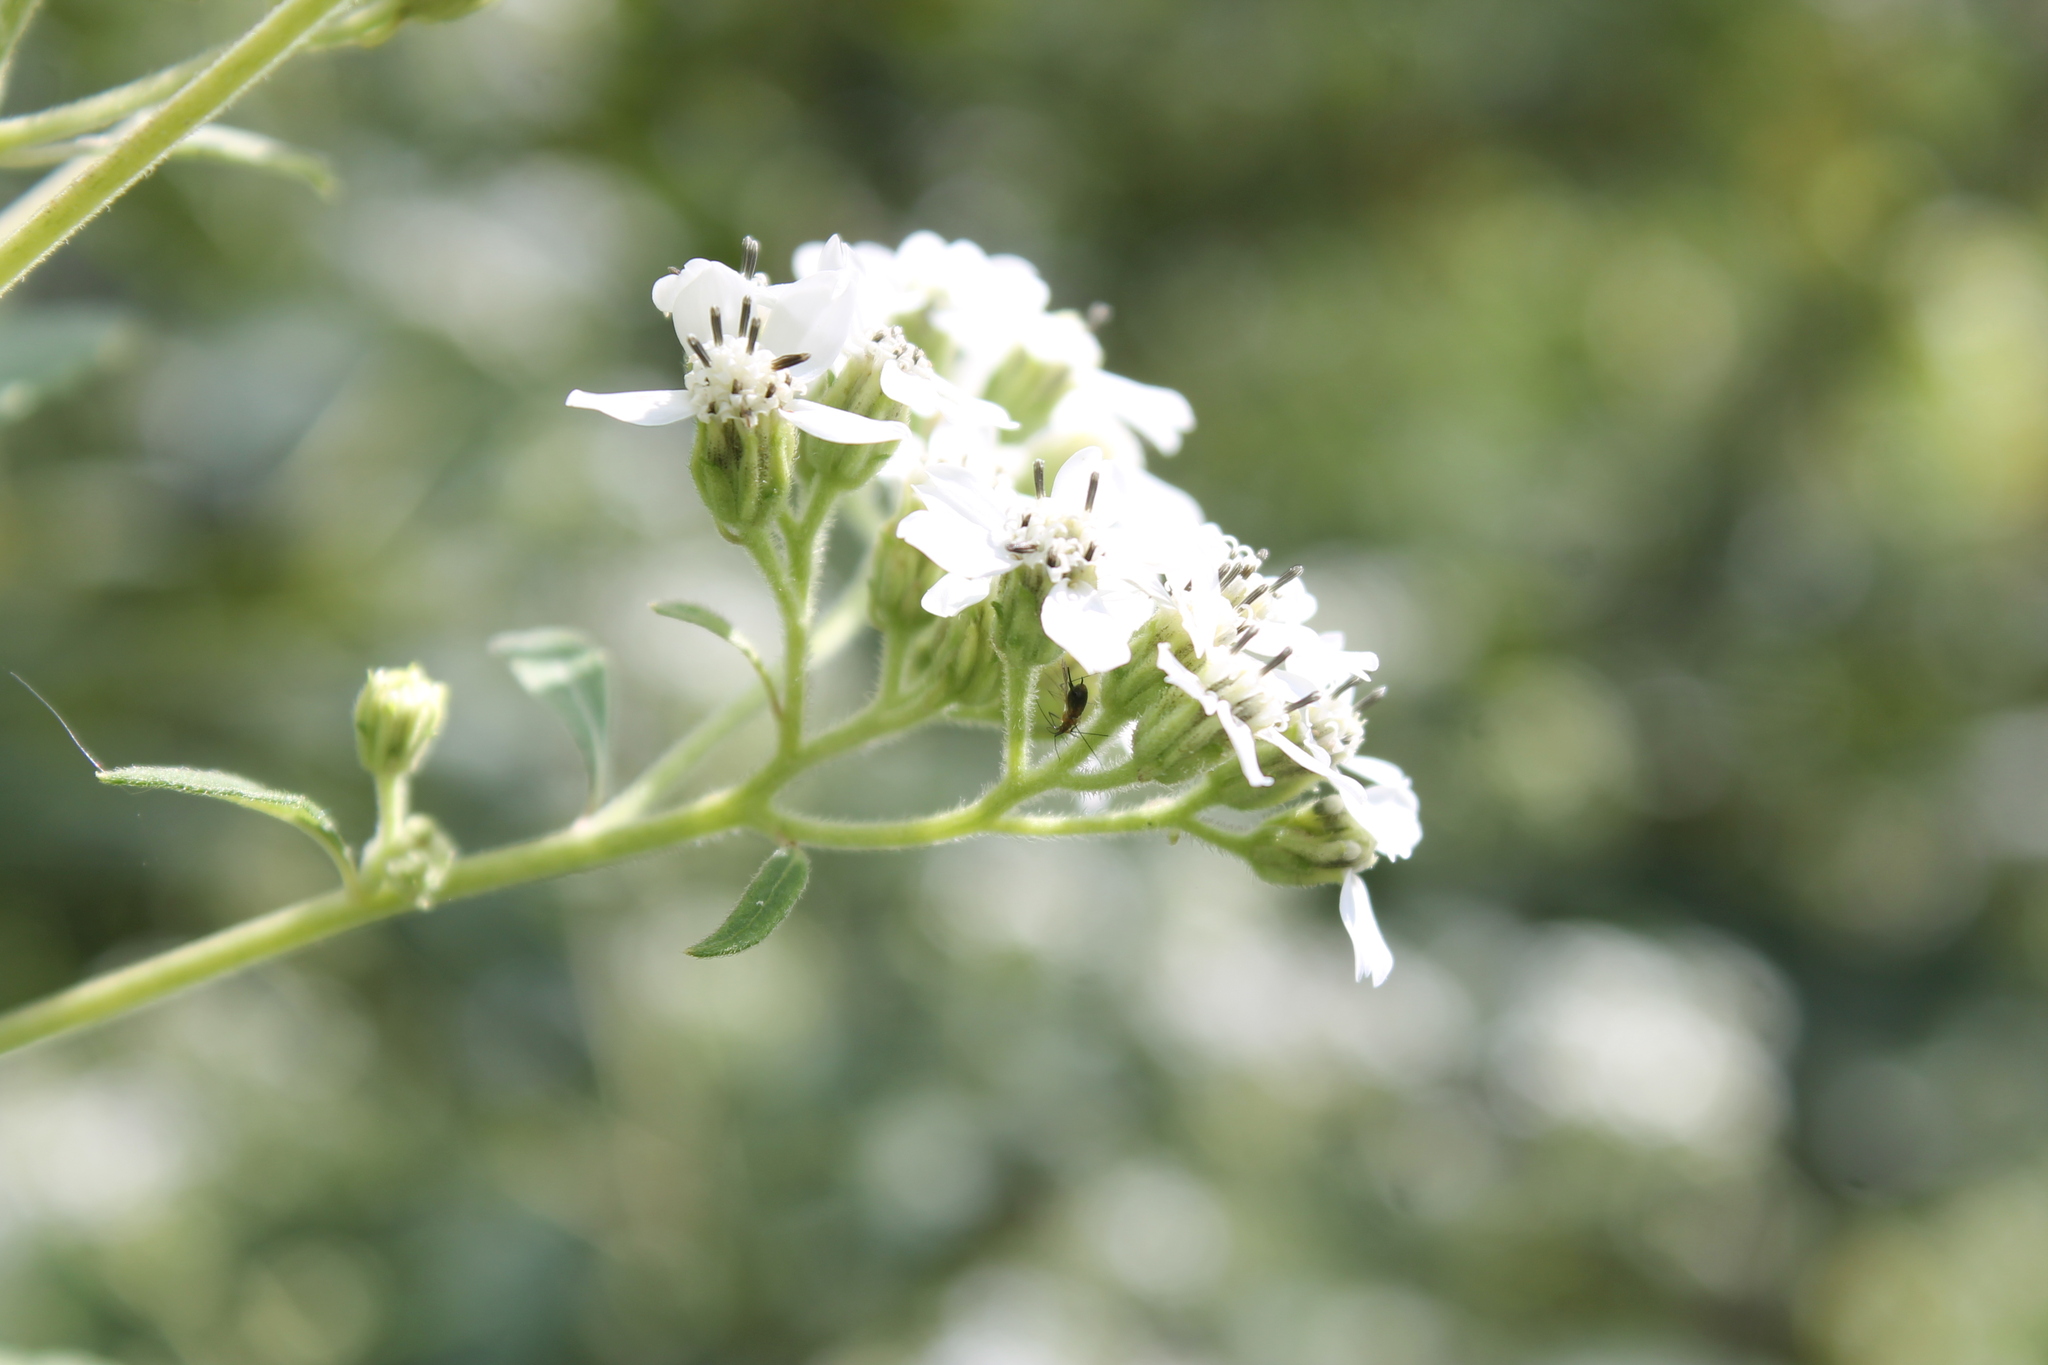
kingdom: Plantae
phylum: Tracheophyta
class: Magnoliopsida
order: Asterales
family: Asteraceae
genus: Verbesina
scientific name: Verbesina virginica
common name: Frostweed
